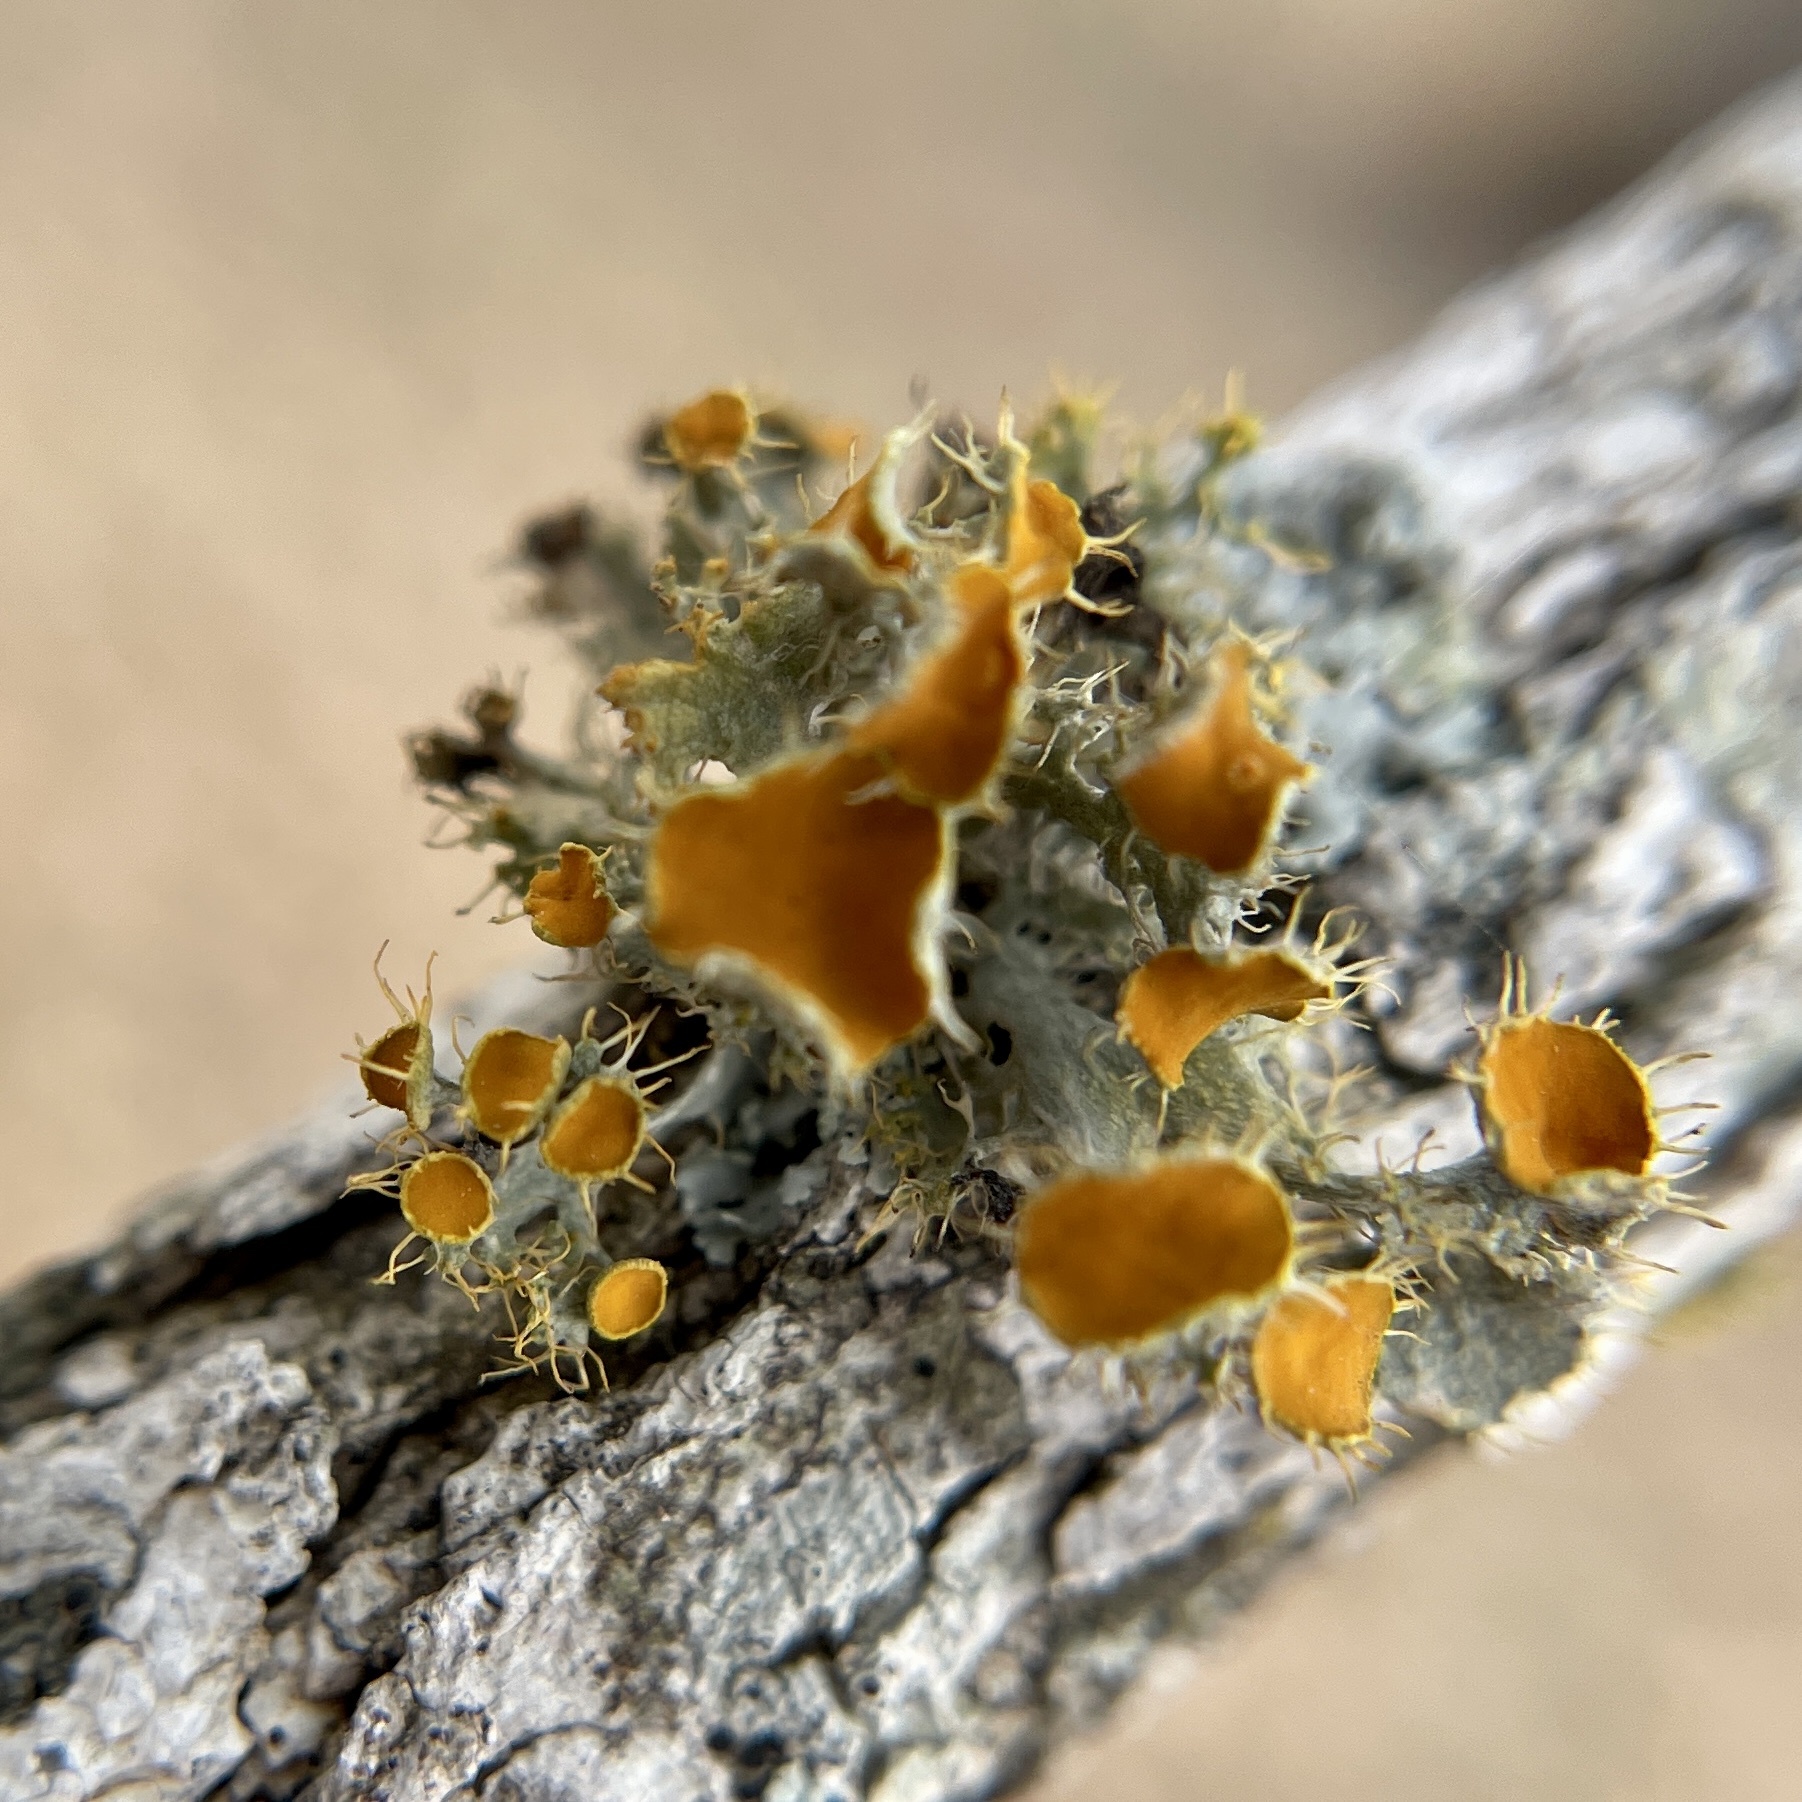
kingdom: Fungi
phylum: Ascomycota
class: Lecanoromycetes
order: Teloschistales
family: Teloschistaceae
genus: Niorma
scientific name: Niorma chrysophthalma
